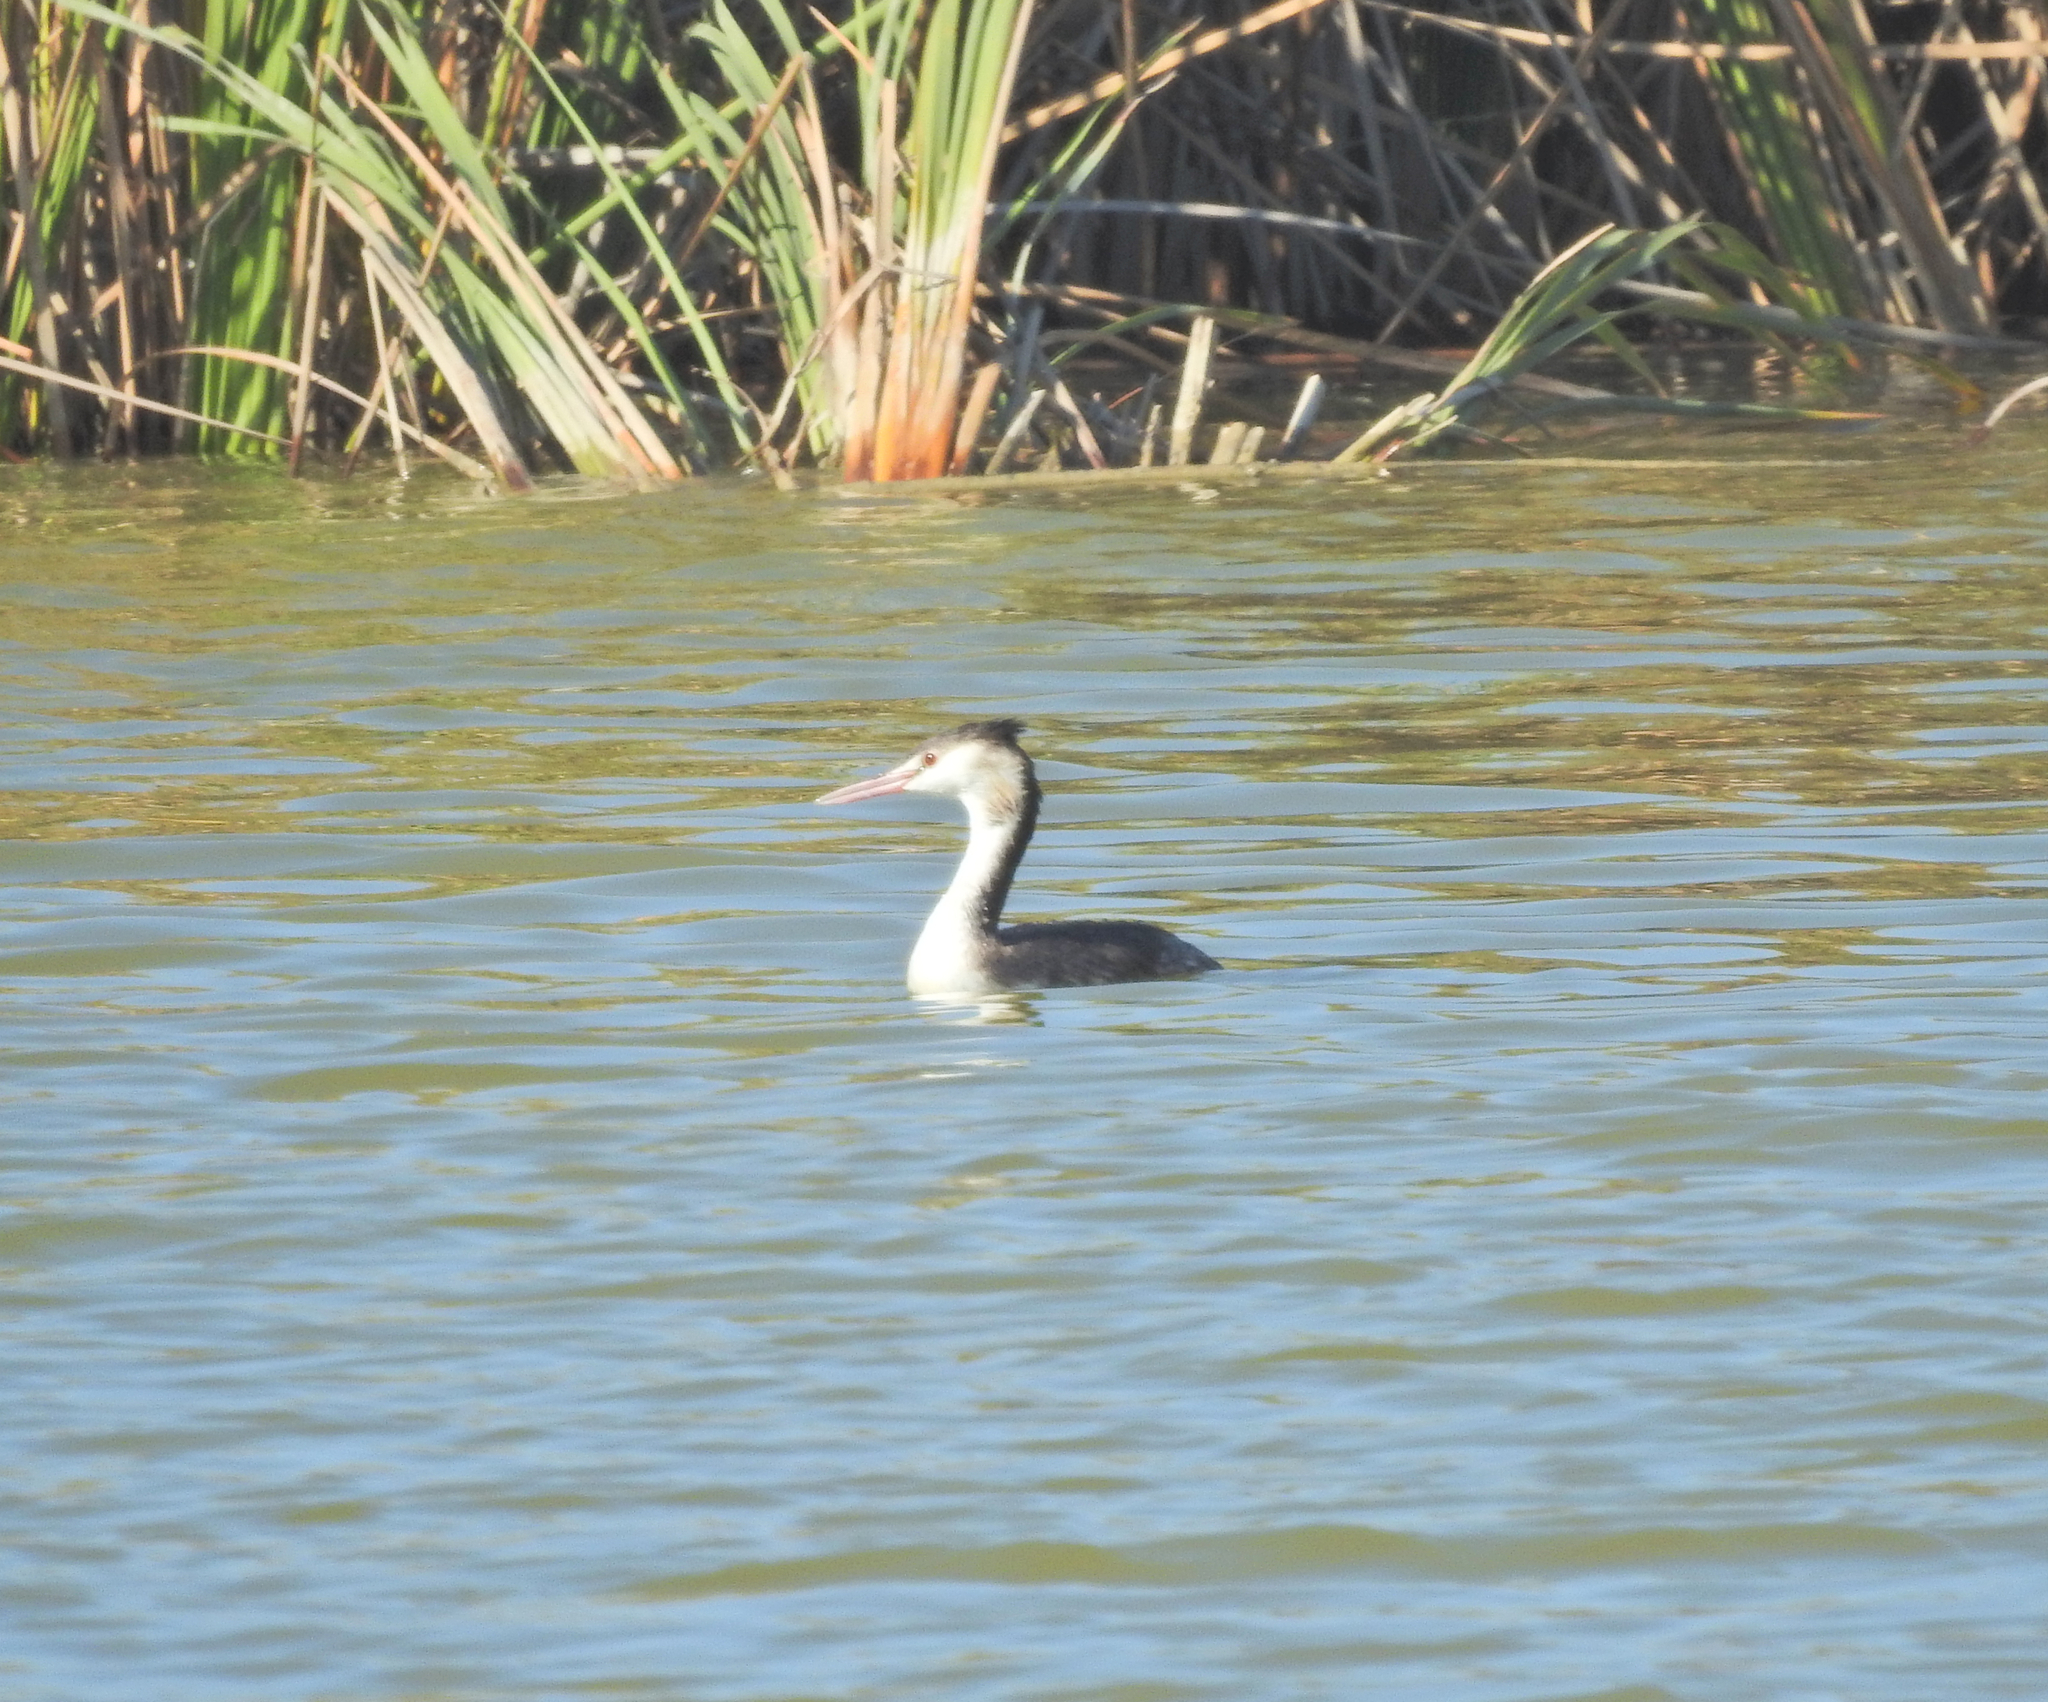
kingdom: Animalia
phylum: Chordata
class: Aves
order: Podicipediformes
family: Podicipedidae
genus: Podiceps
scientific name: Podiceps cristatus
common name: Great crested grebe
